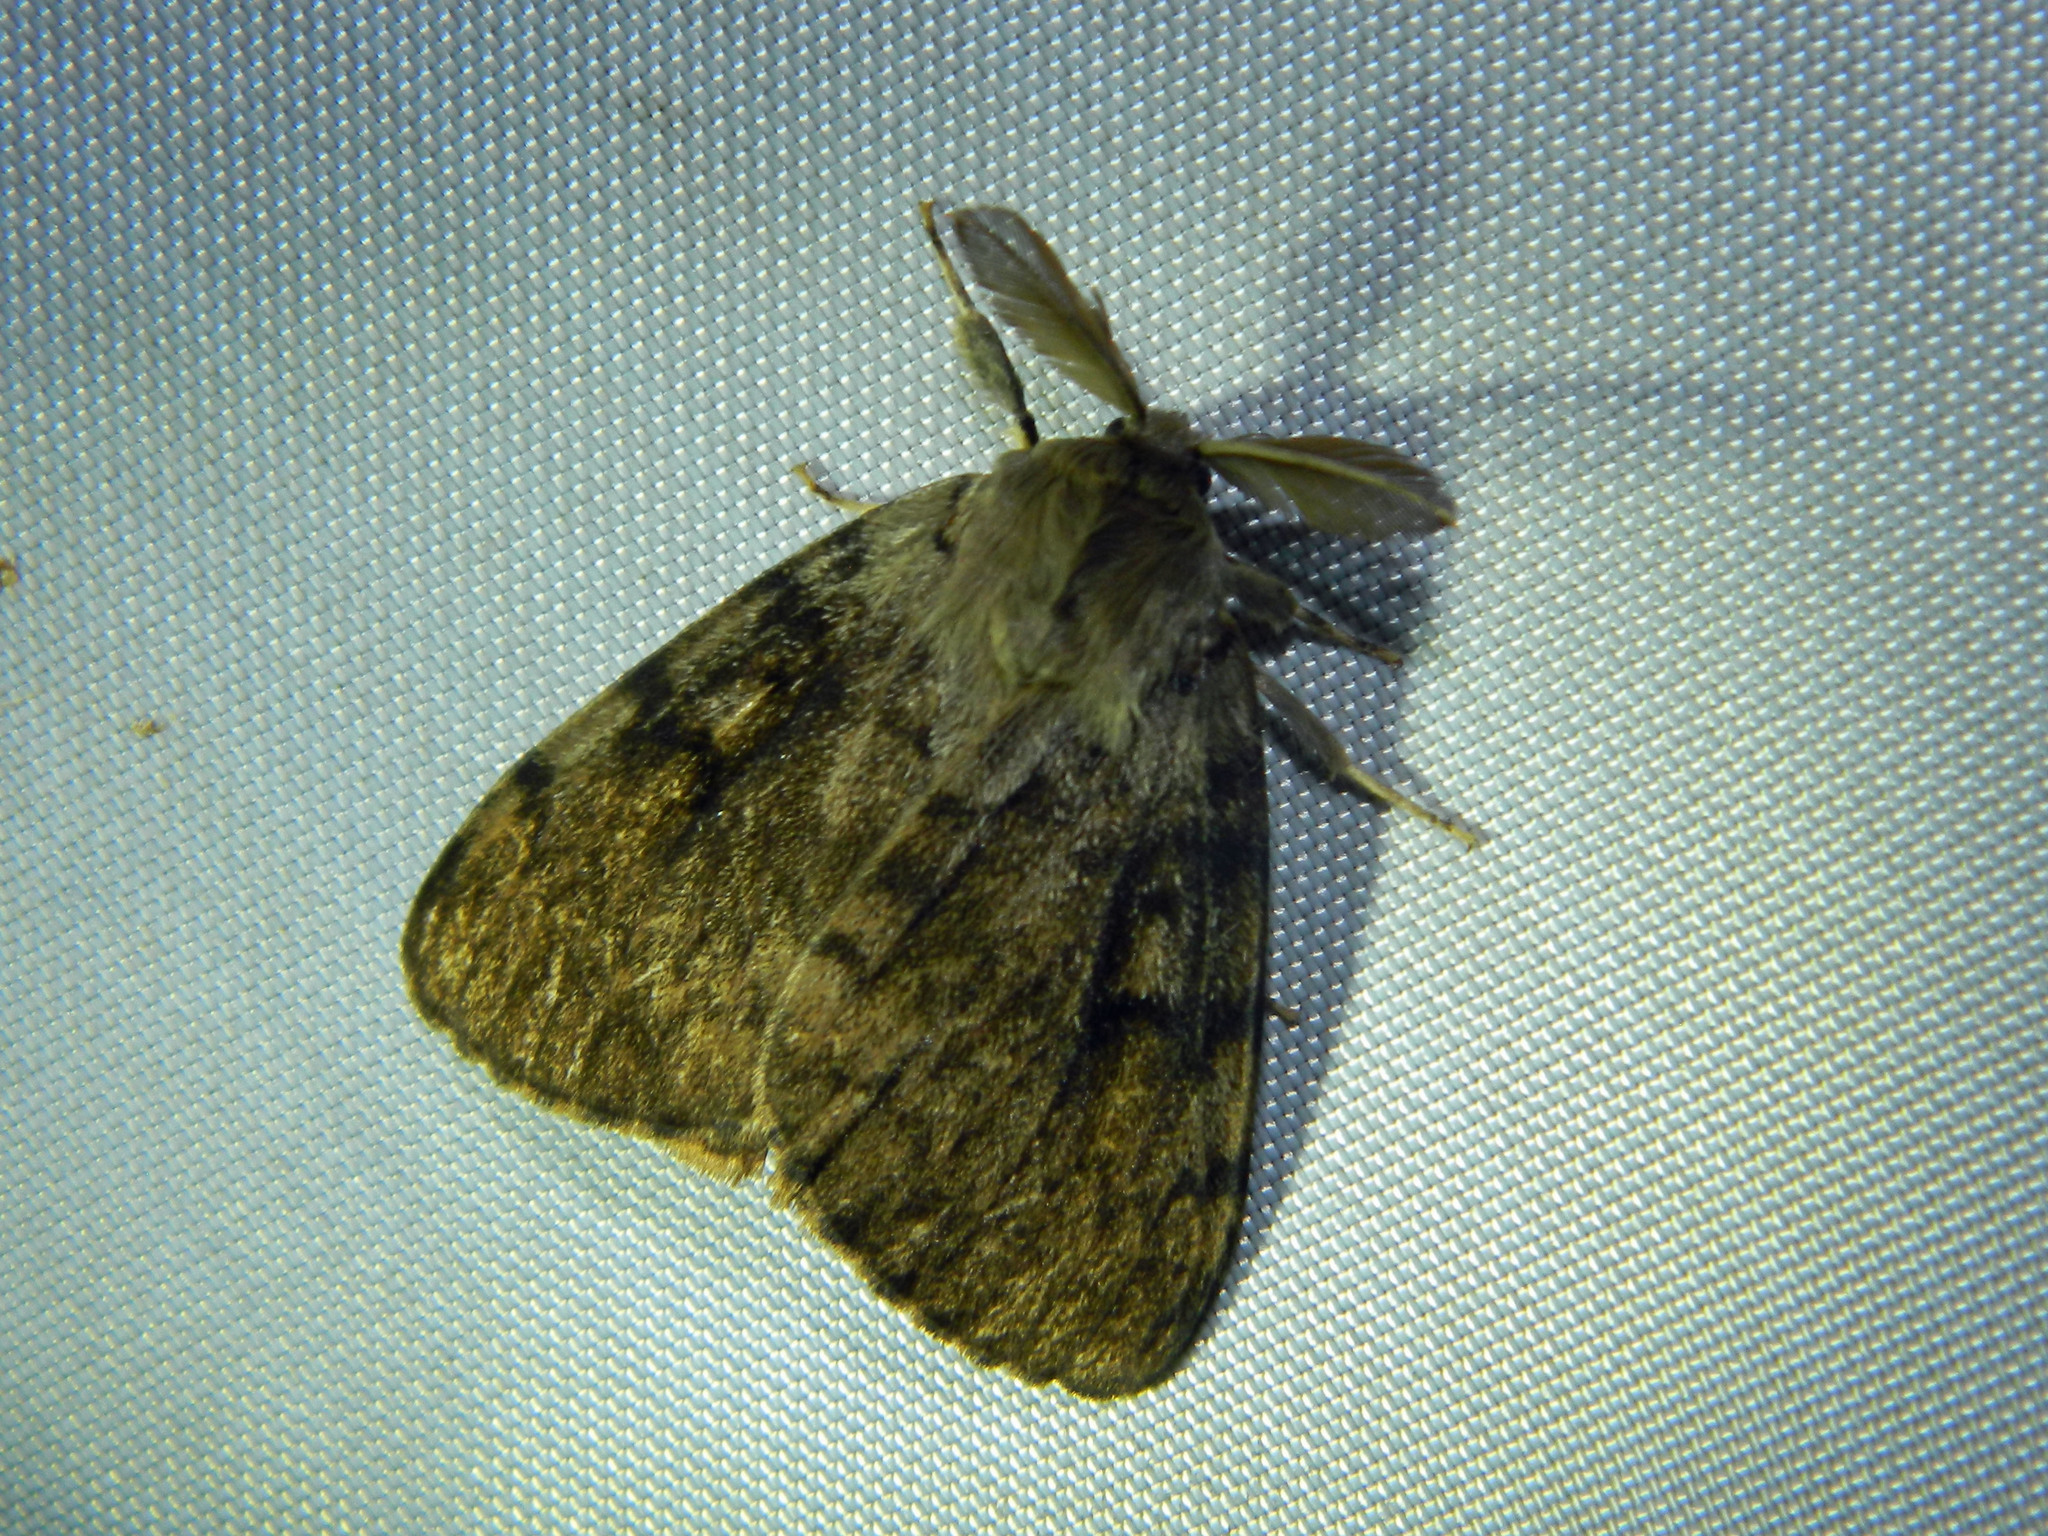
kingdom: Animalia
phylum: Arthropoda
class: Insecta
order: Lepidoptera
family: Erebidae
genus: Lymantria
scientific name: Lymantria dispar
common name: Gypsy moth
